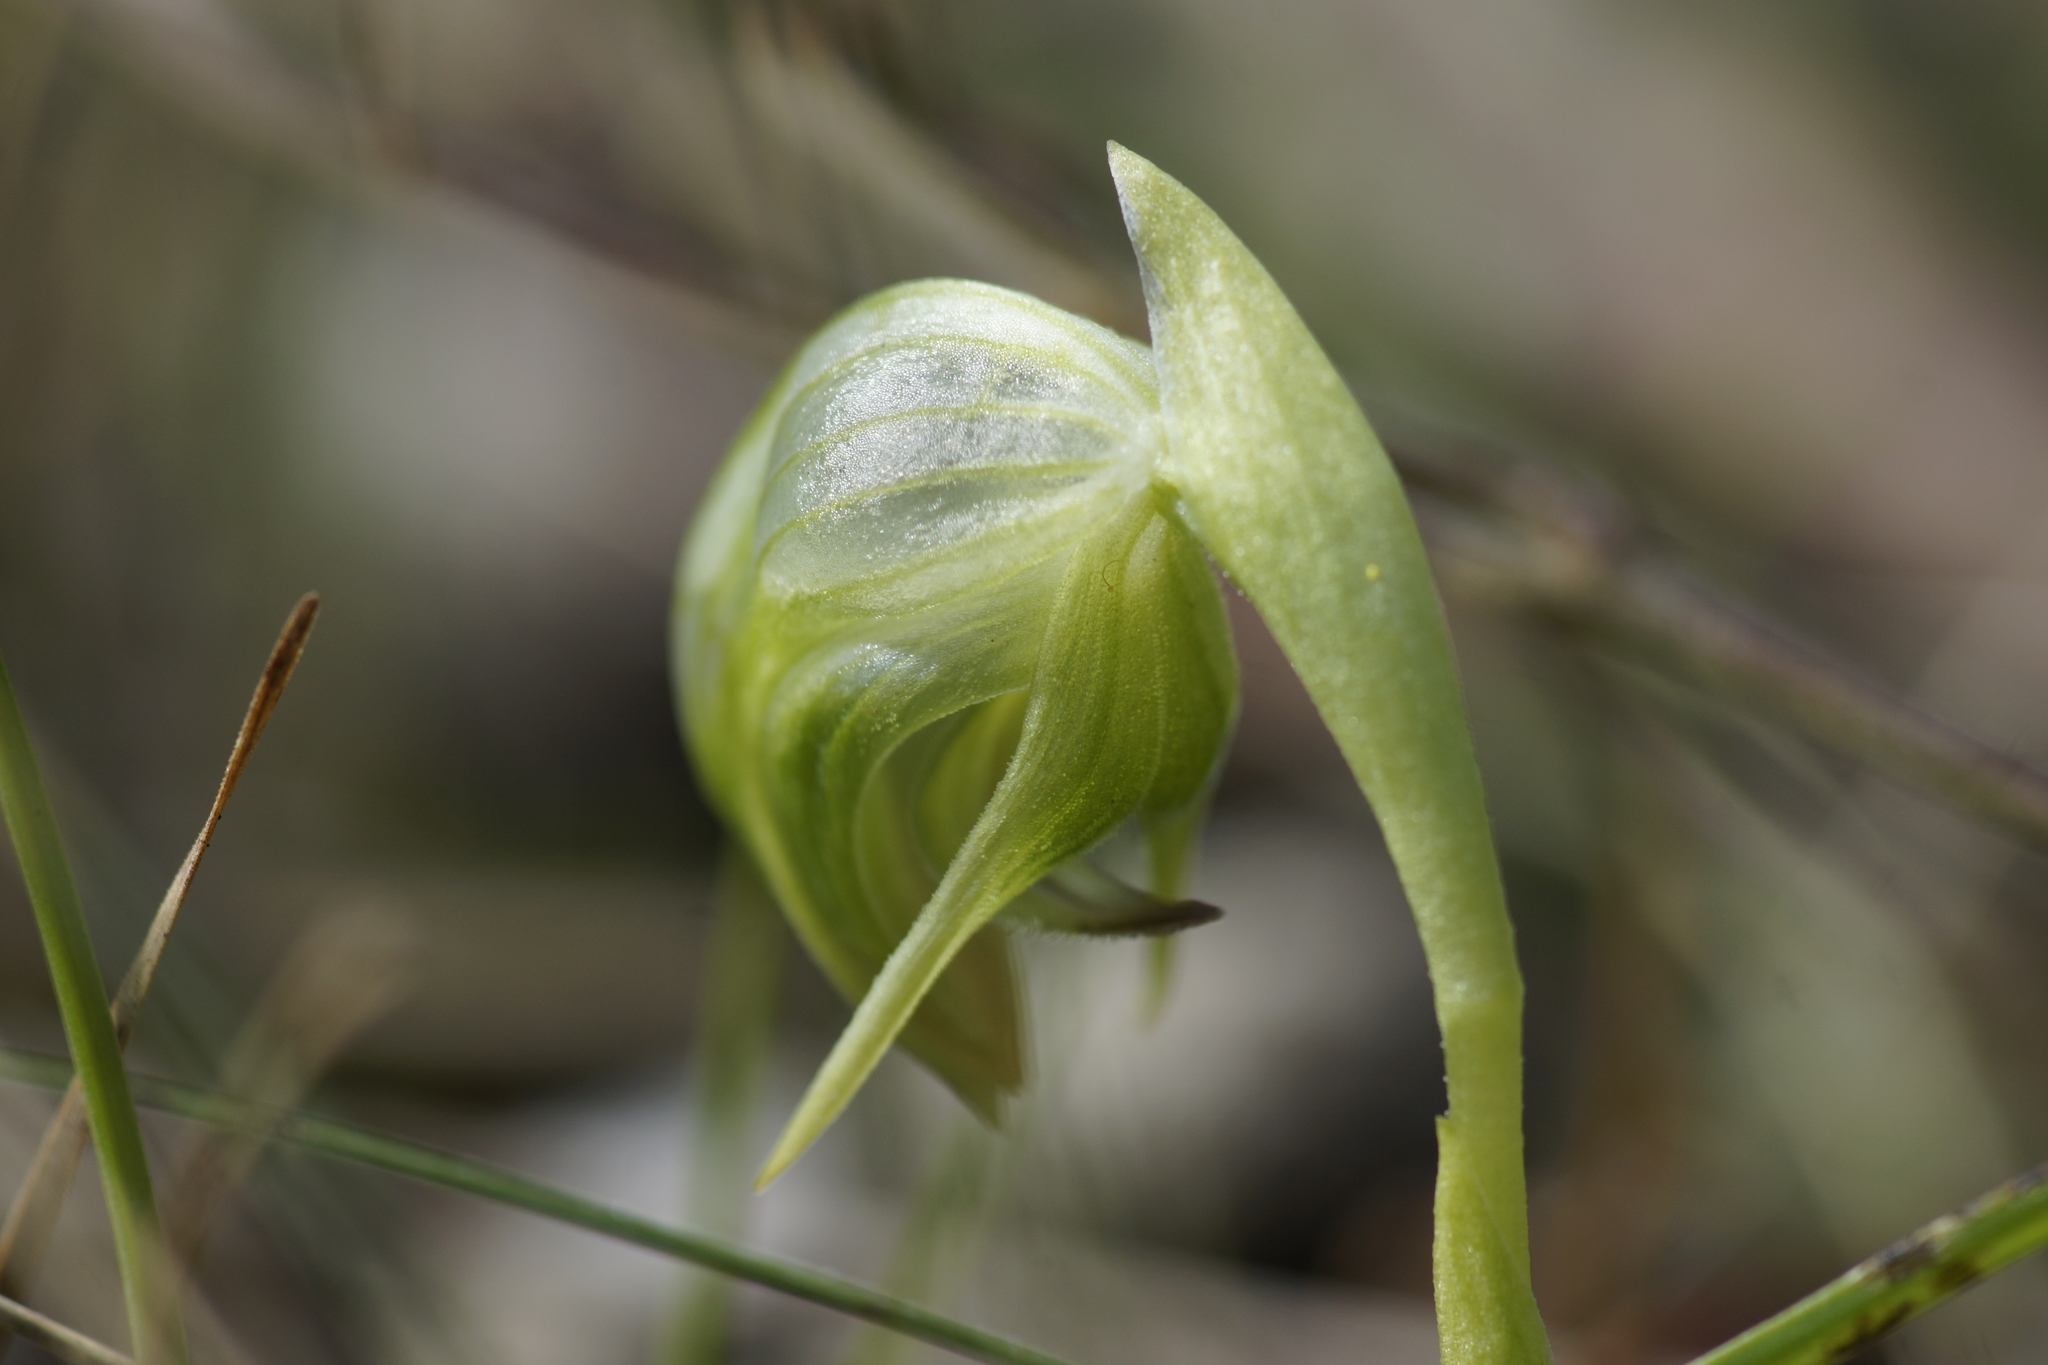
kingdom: Plantae
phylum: Tracheophyta
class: Liliopsida
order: Asparagales
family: Orchidaceae
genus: Pterostylis
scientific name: Pterostylis nutans
